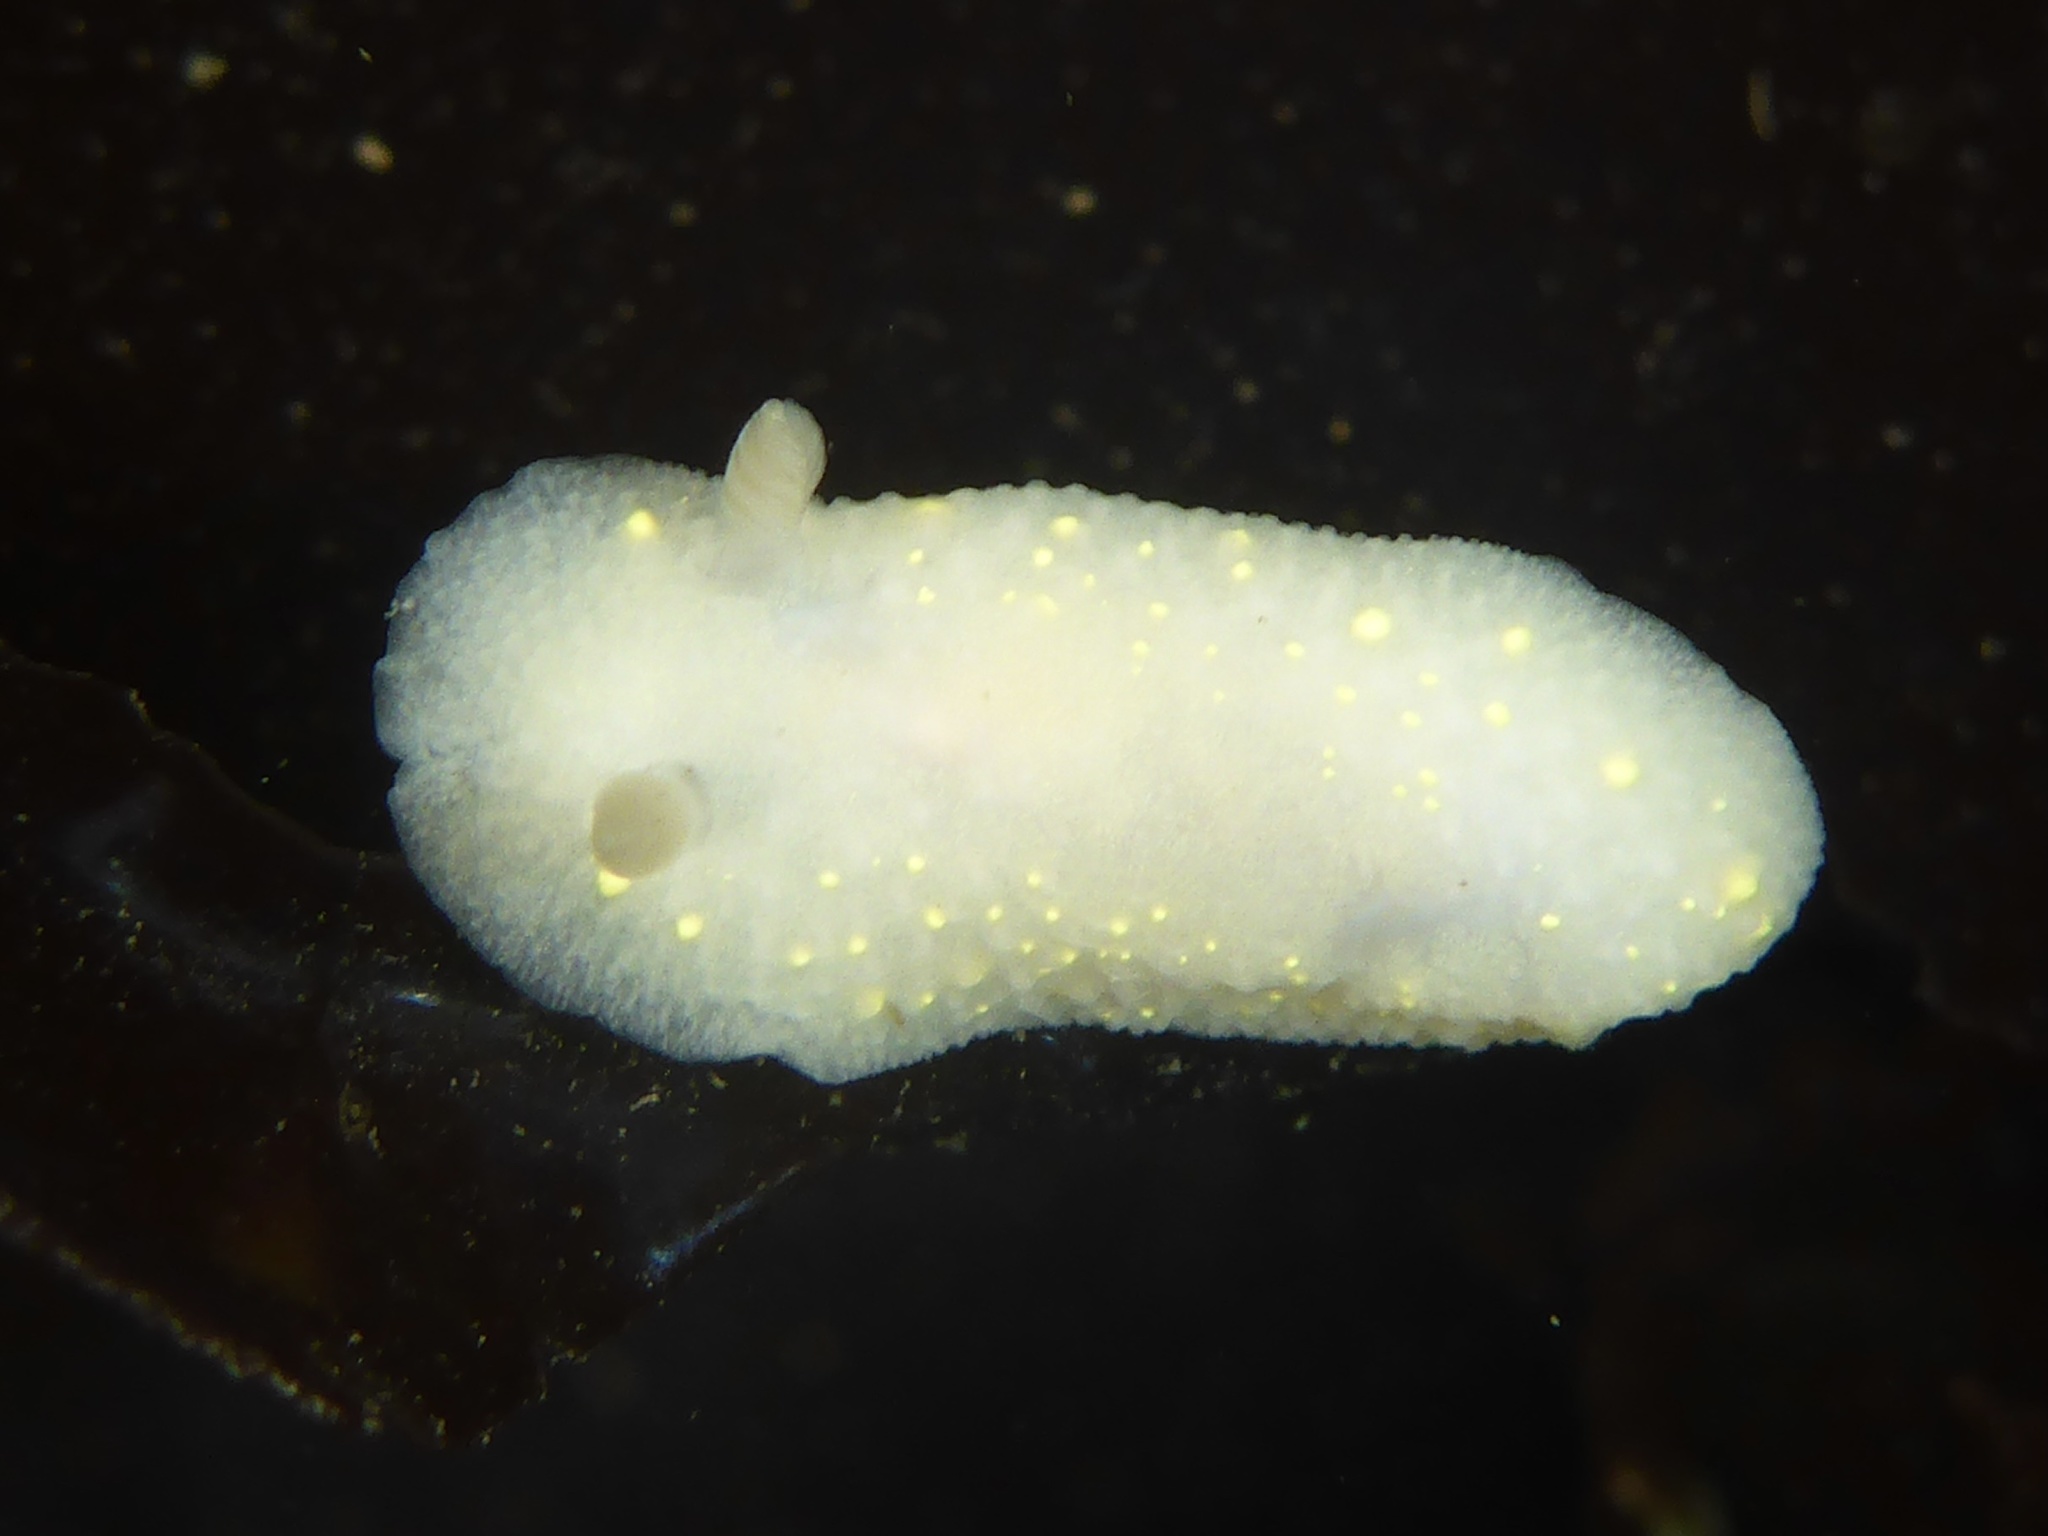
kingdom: Animalia
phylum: Mollusca
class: Gastropoda
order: Nudibranchia
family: Cadlinidae
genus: Cadlina
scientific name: Cadlina modesta
